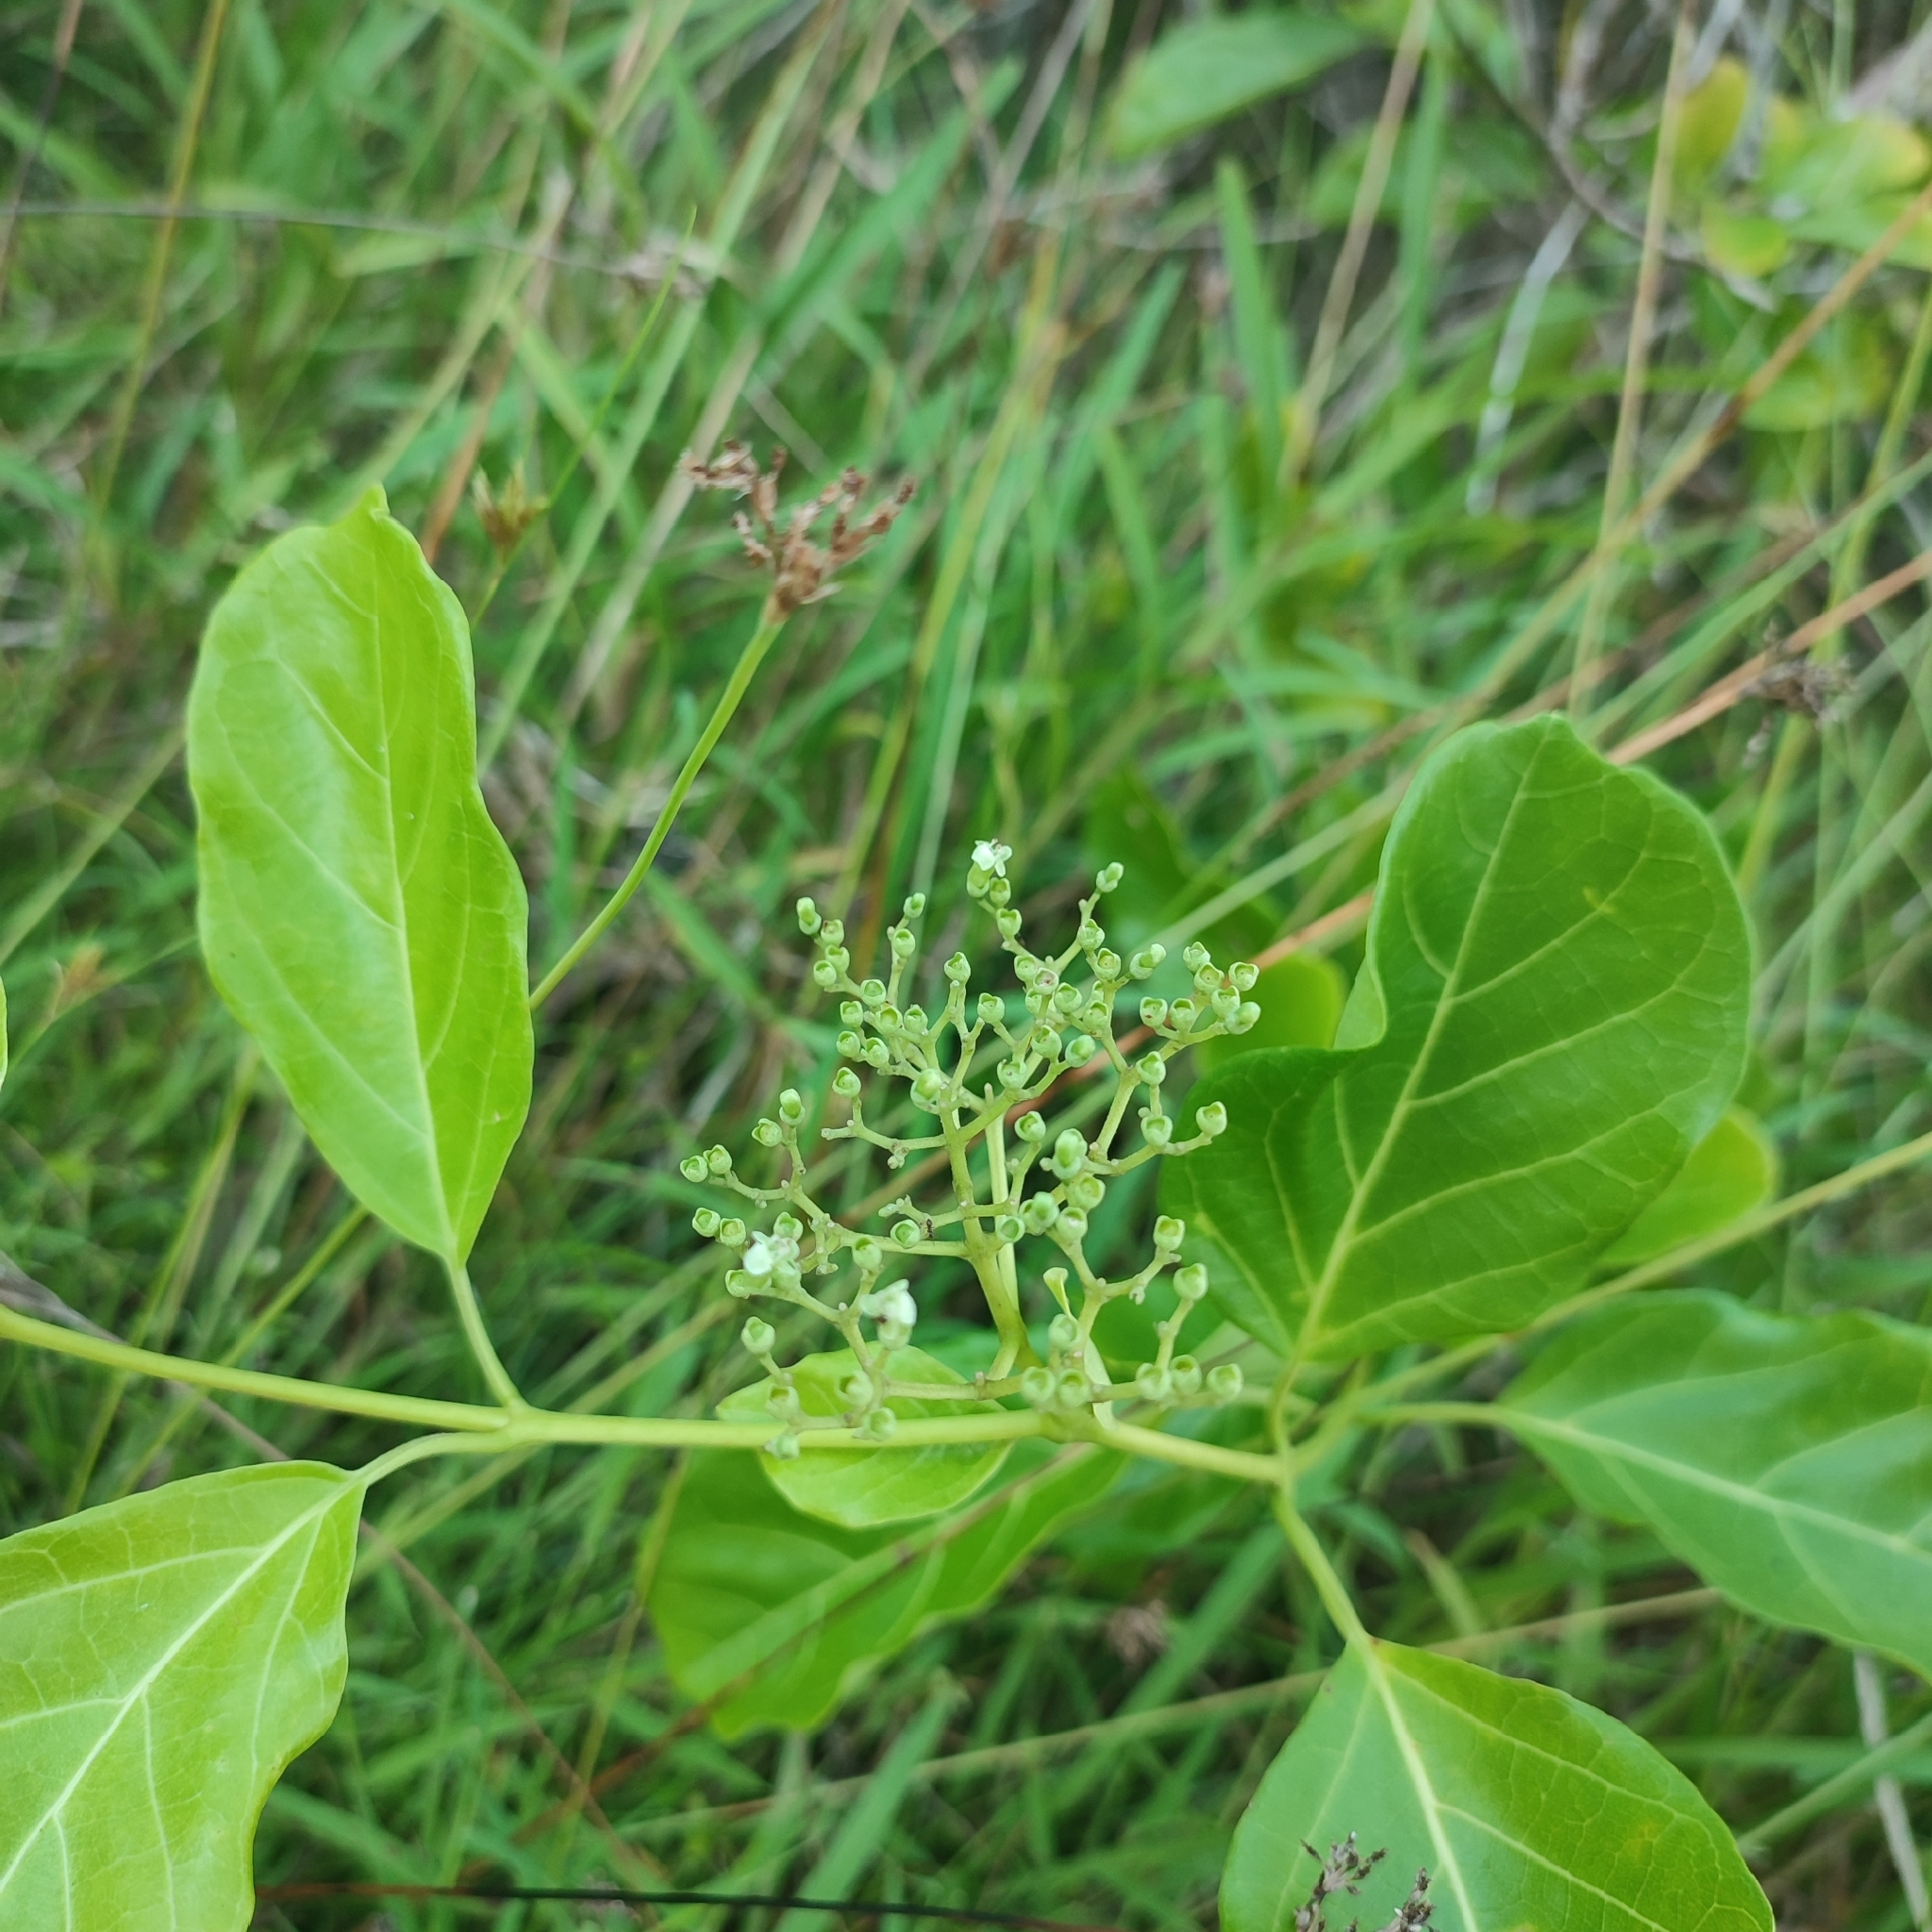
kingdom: Plantae
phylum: Tracheophyta
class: Magnoliopsida
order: Lamiales
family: Lamiaceae
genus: Premna
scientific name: Premna serratifolia
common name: Bastard guelder
